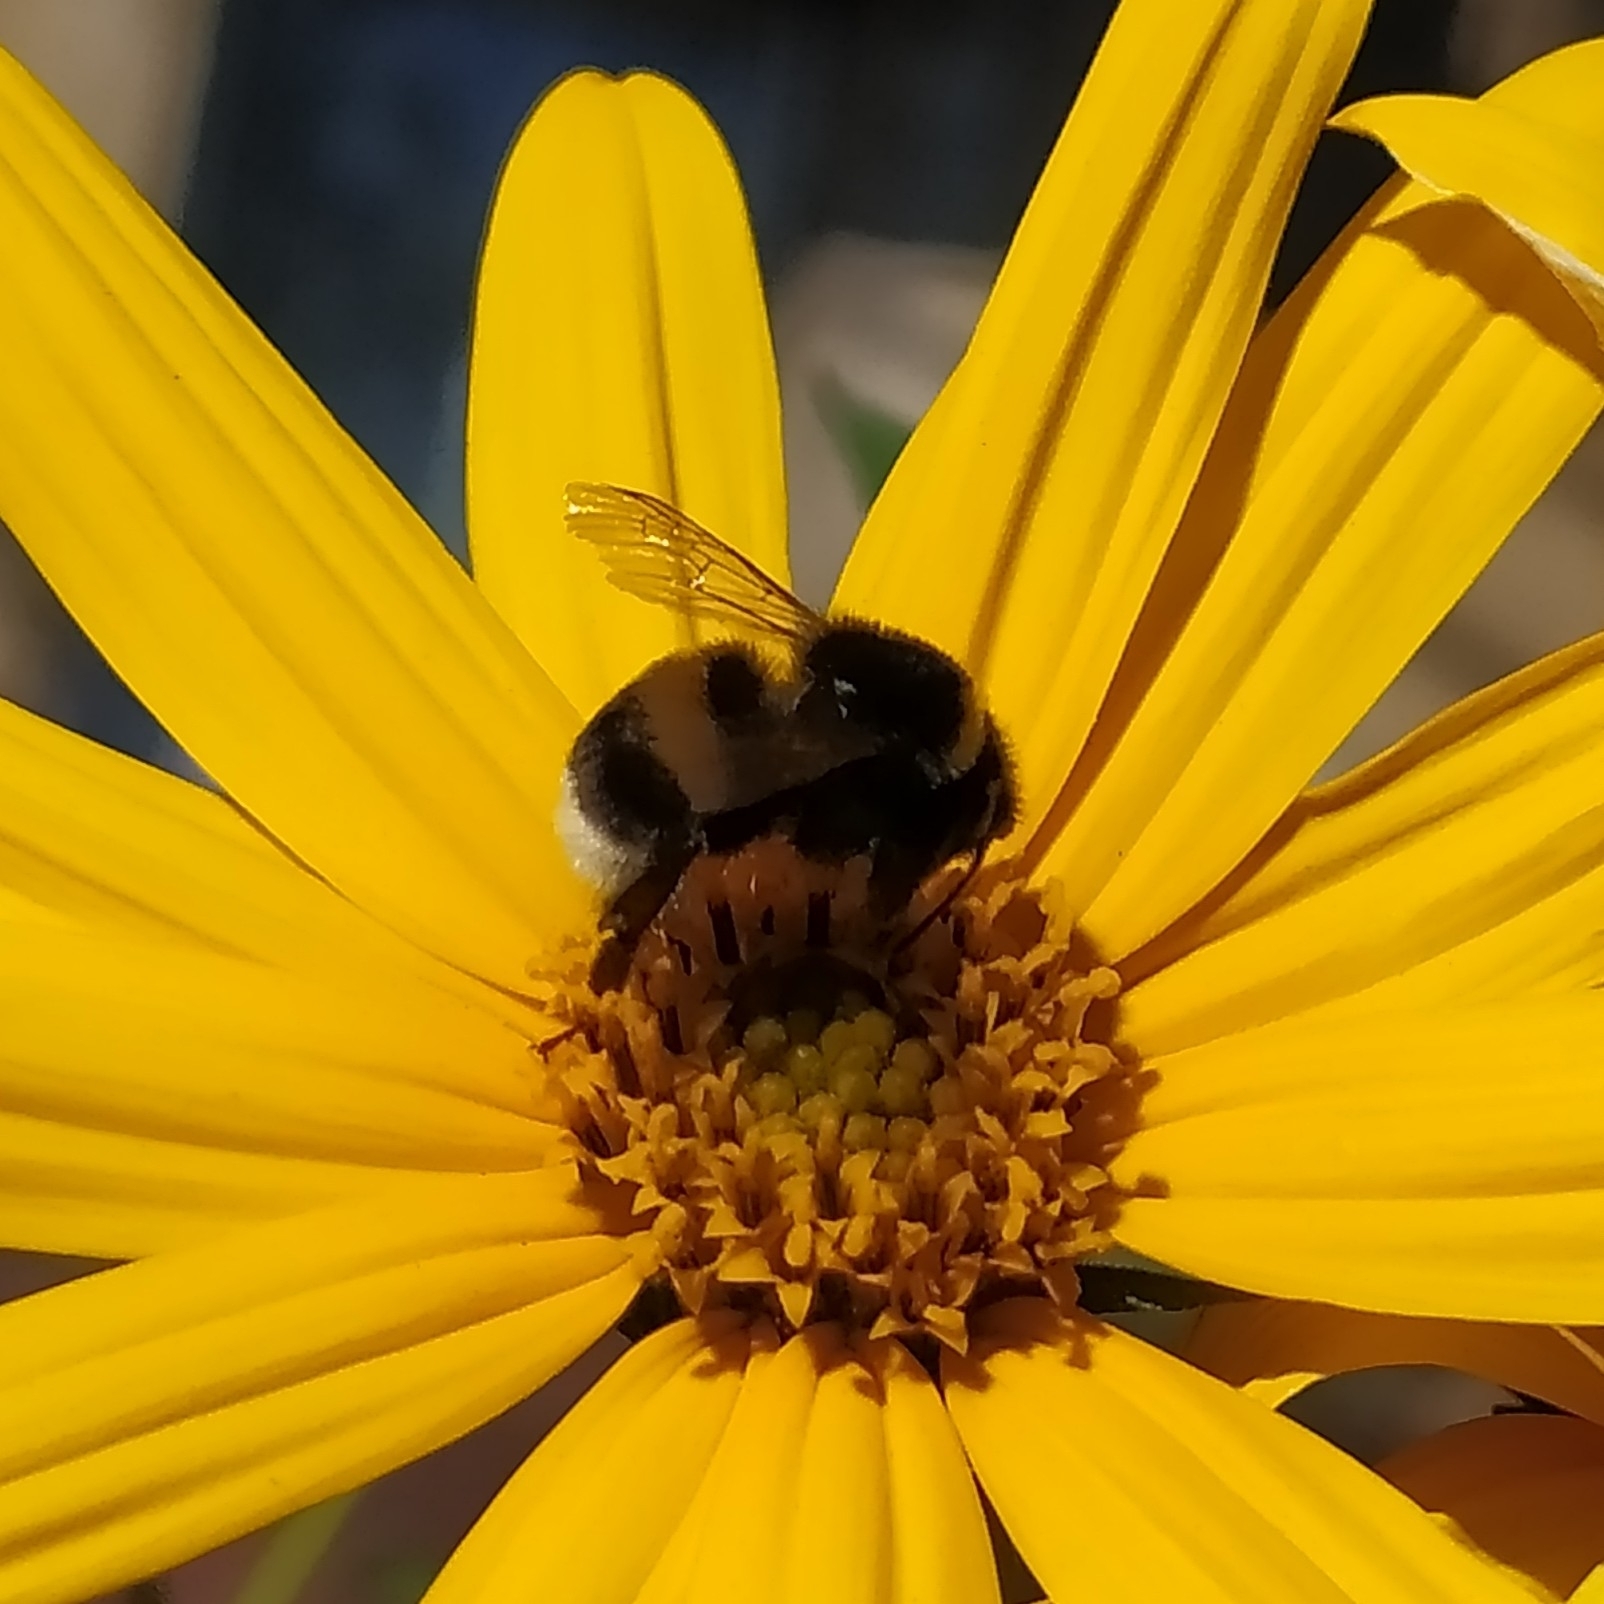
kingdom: Animalia
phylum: Arthropoda
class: Insecta
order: Hymenoptera
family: Apidae
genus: Bombus
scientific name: Bombus
